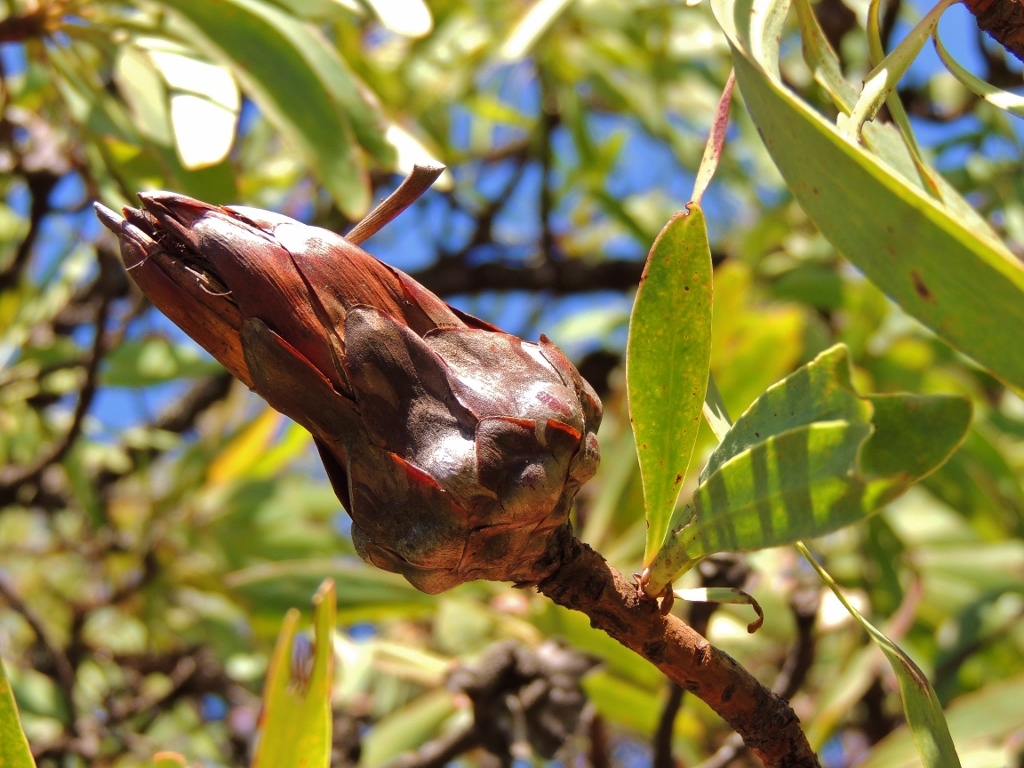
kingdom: Plantae
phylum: Tracheophyta
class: Magnoliopsida
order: Proteales
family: Proteaceae
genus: Protea
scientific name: Protea petiolaris
